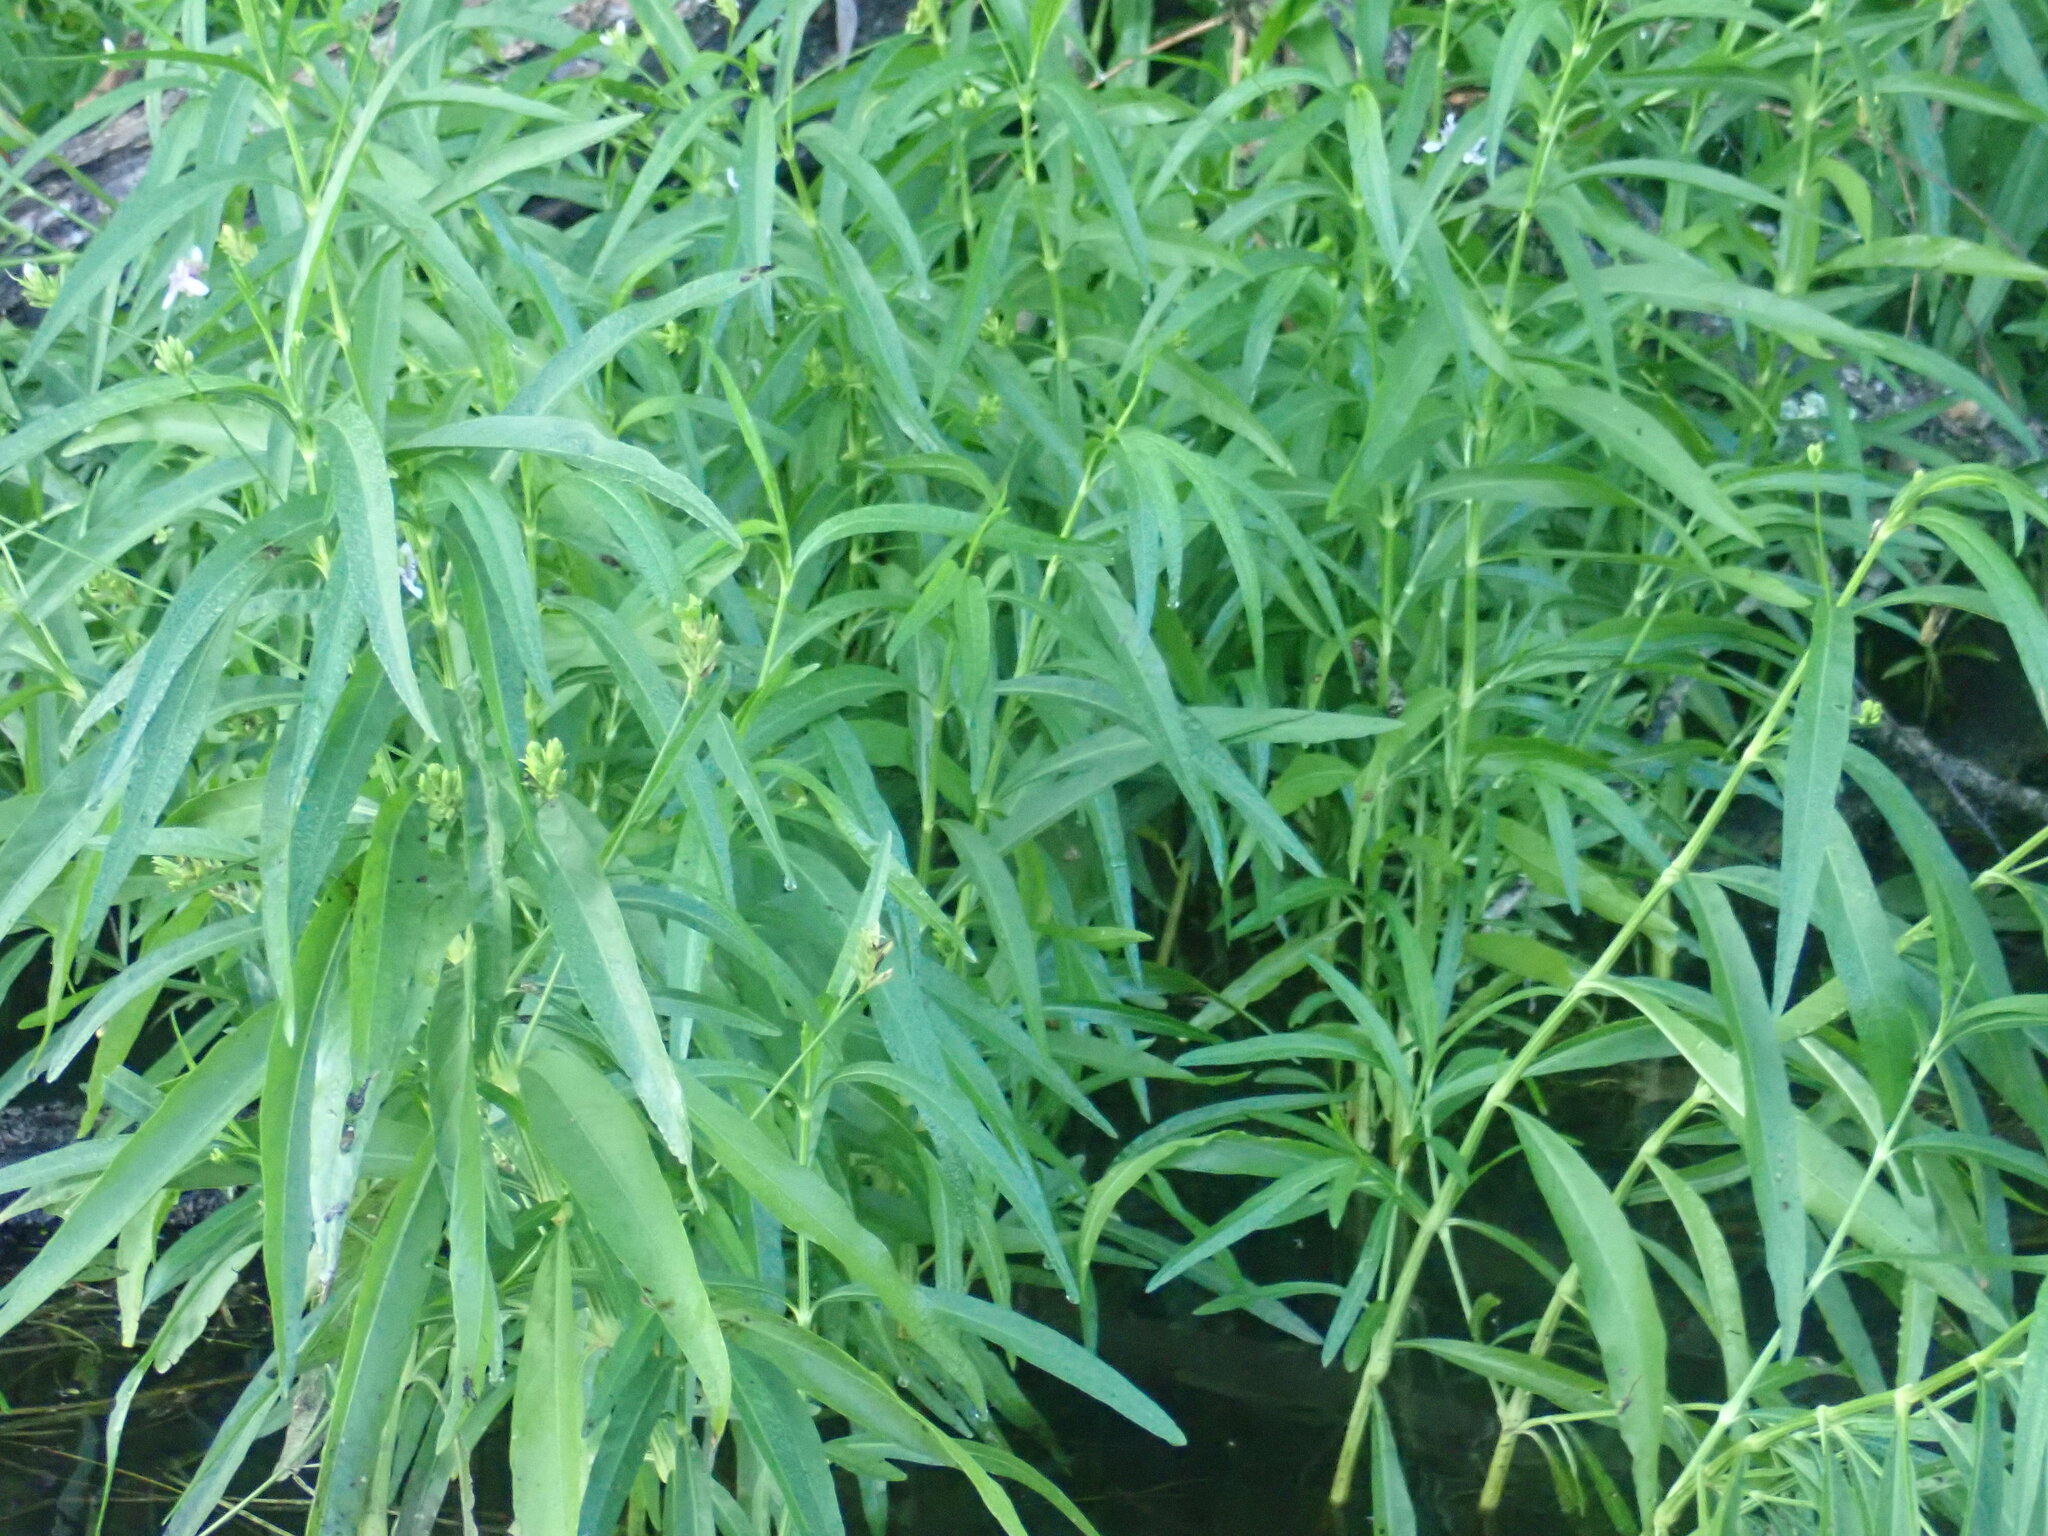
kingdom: Plantae
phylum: Tracheophyta
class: Magnoliopsida
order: Lamiales
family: Acanthaceae
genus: Dianthera
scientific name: Dianthera americana
